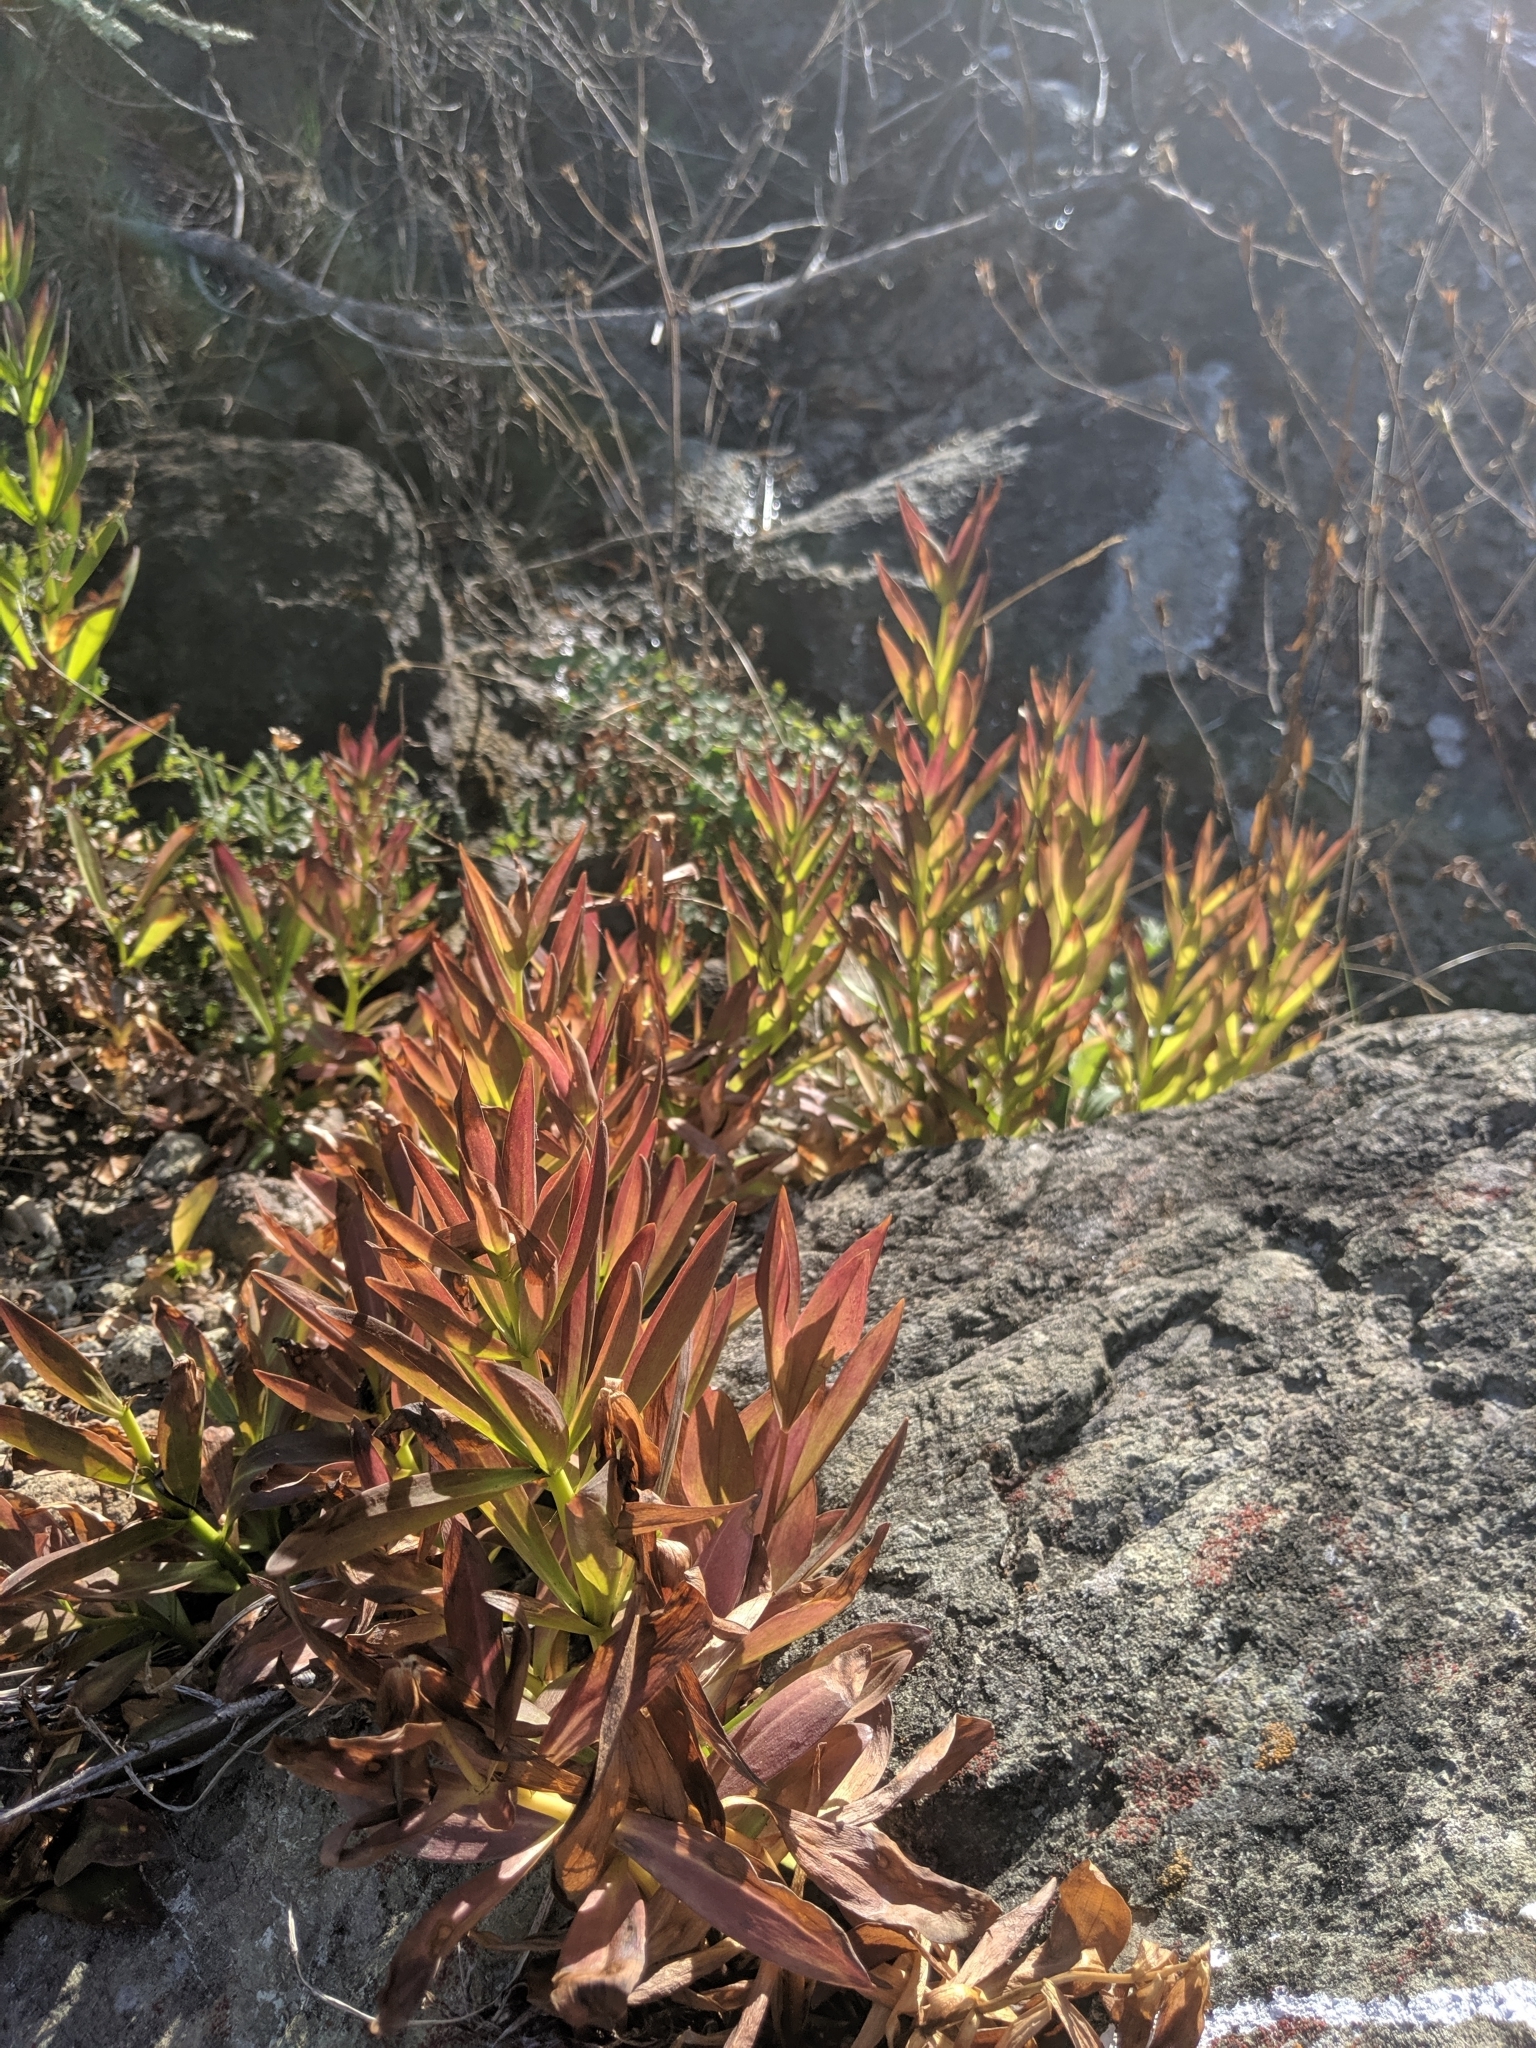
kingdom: Plantae
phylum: Tracheophyta
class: Liliopsida
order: Liliales
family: Liliaceae
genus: Lilium
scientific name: Lilium pardalinum
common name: Panther lily
